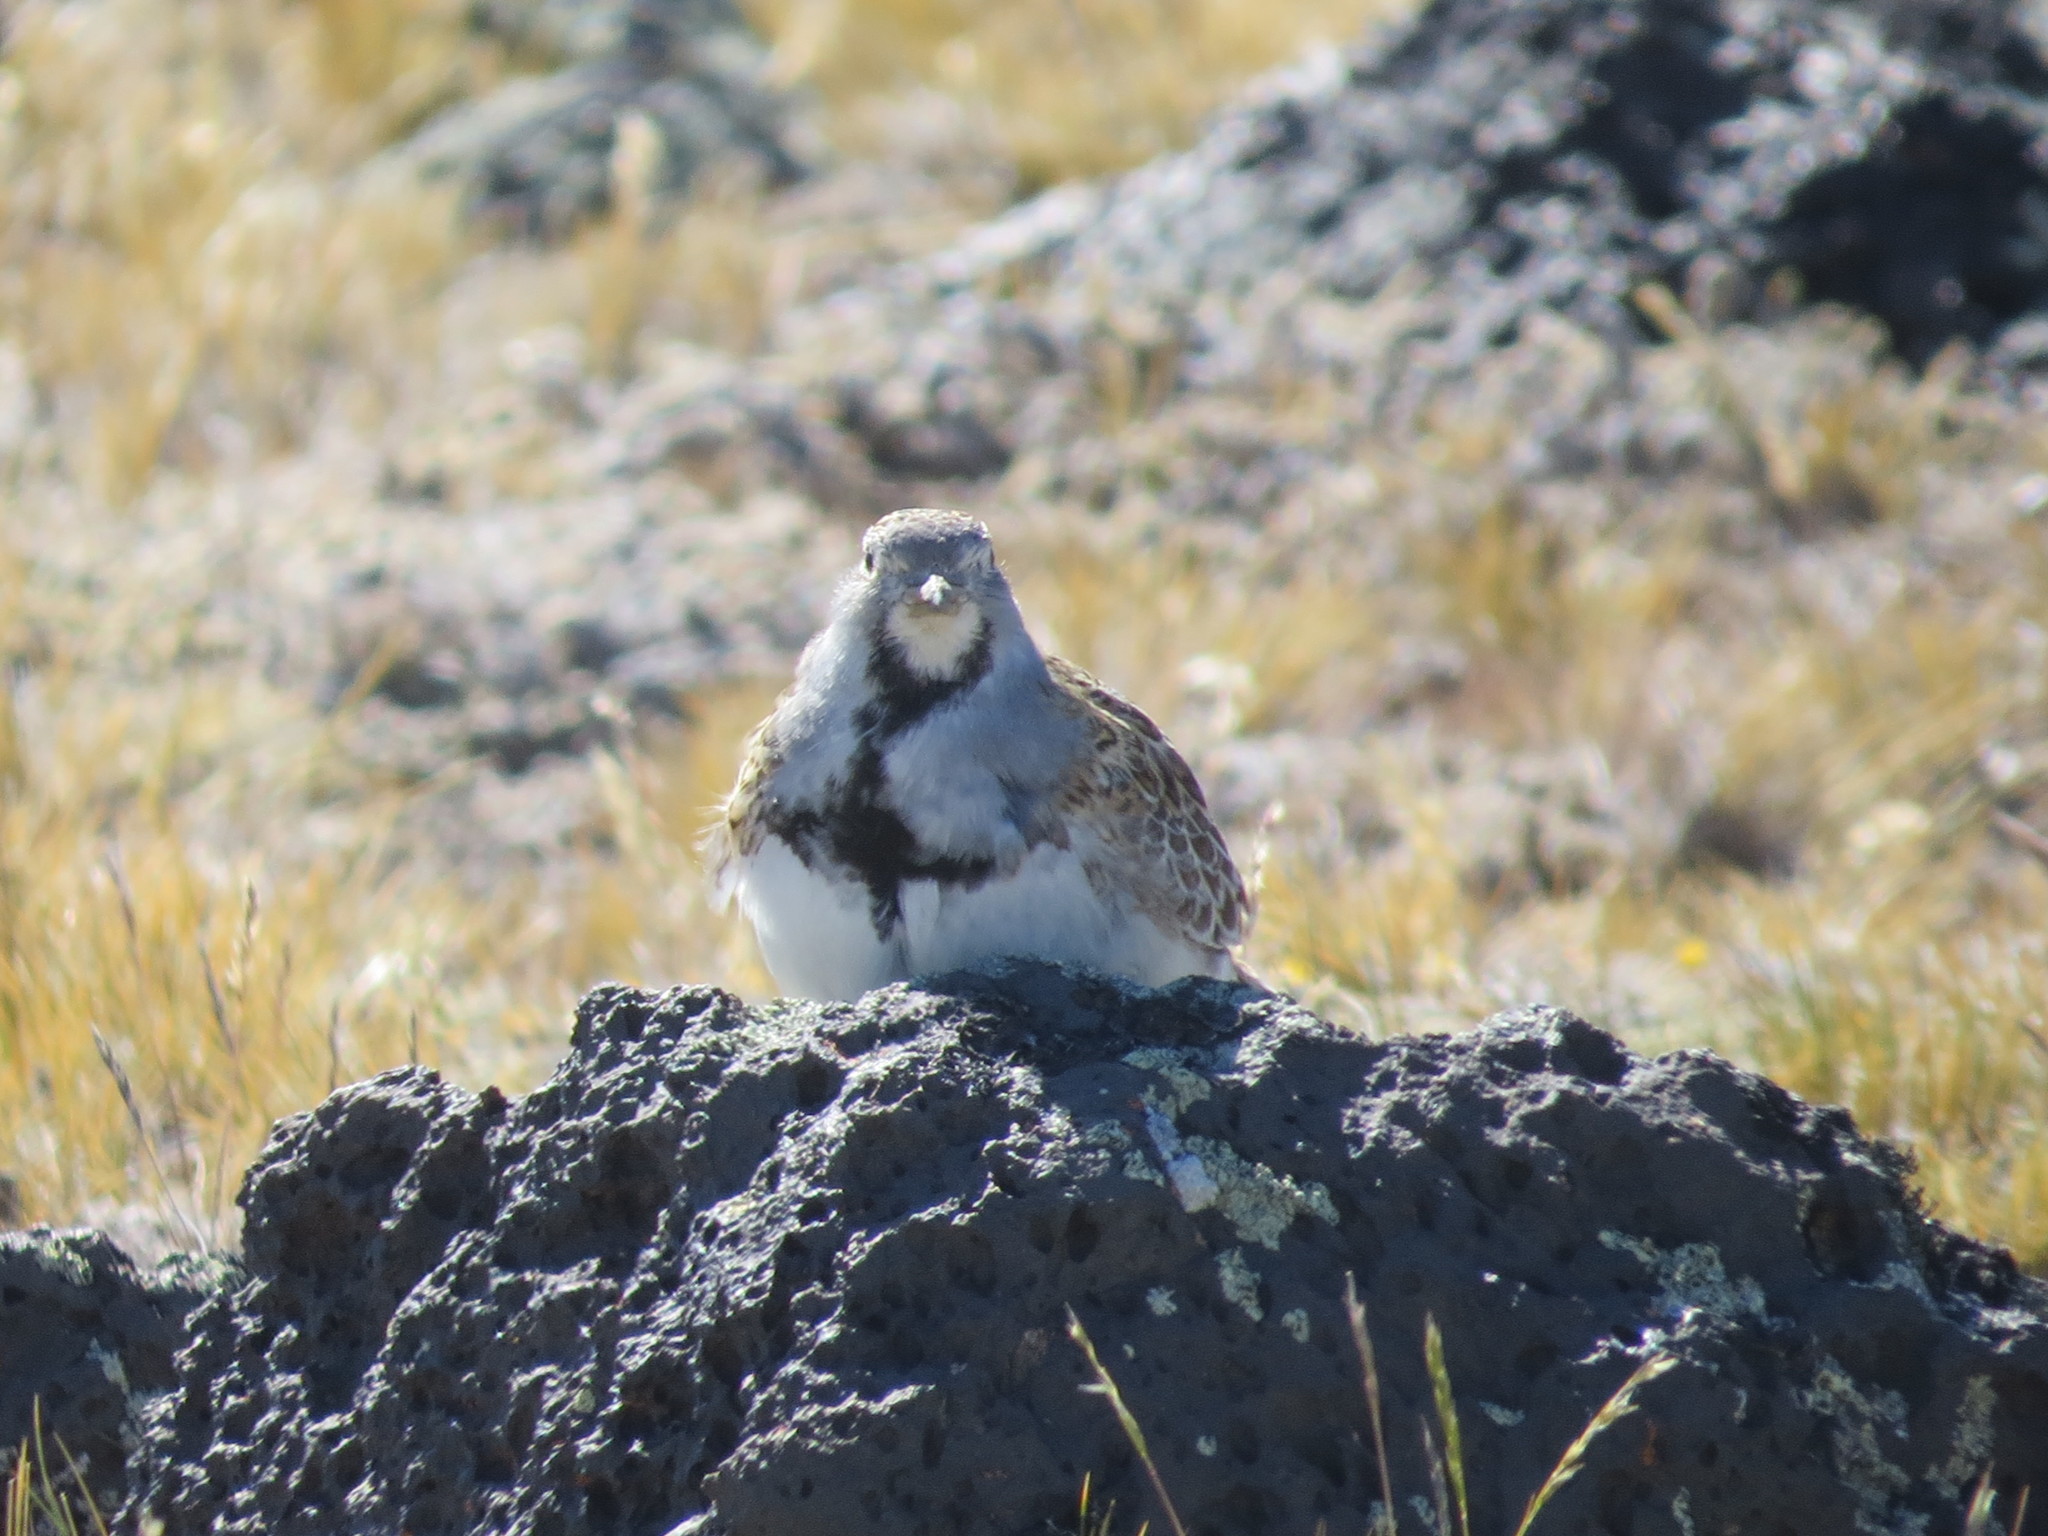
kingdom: Animalia
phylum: Chordata
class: Aves
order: Charadriiformes
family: Thinocoridae
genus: Thinocorus
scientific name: Thinocorus rumicivorus
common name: Least seedsnipe
